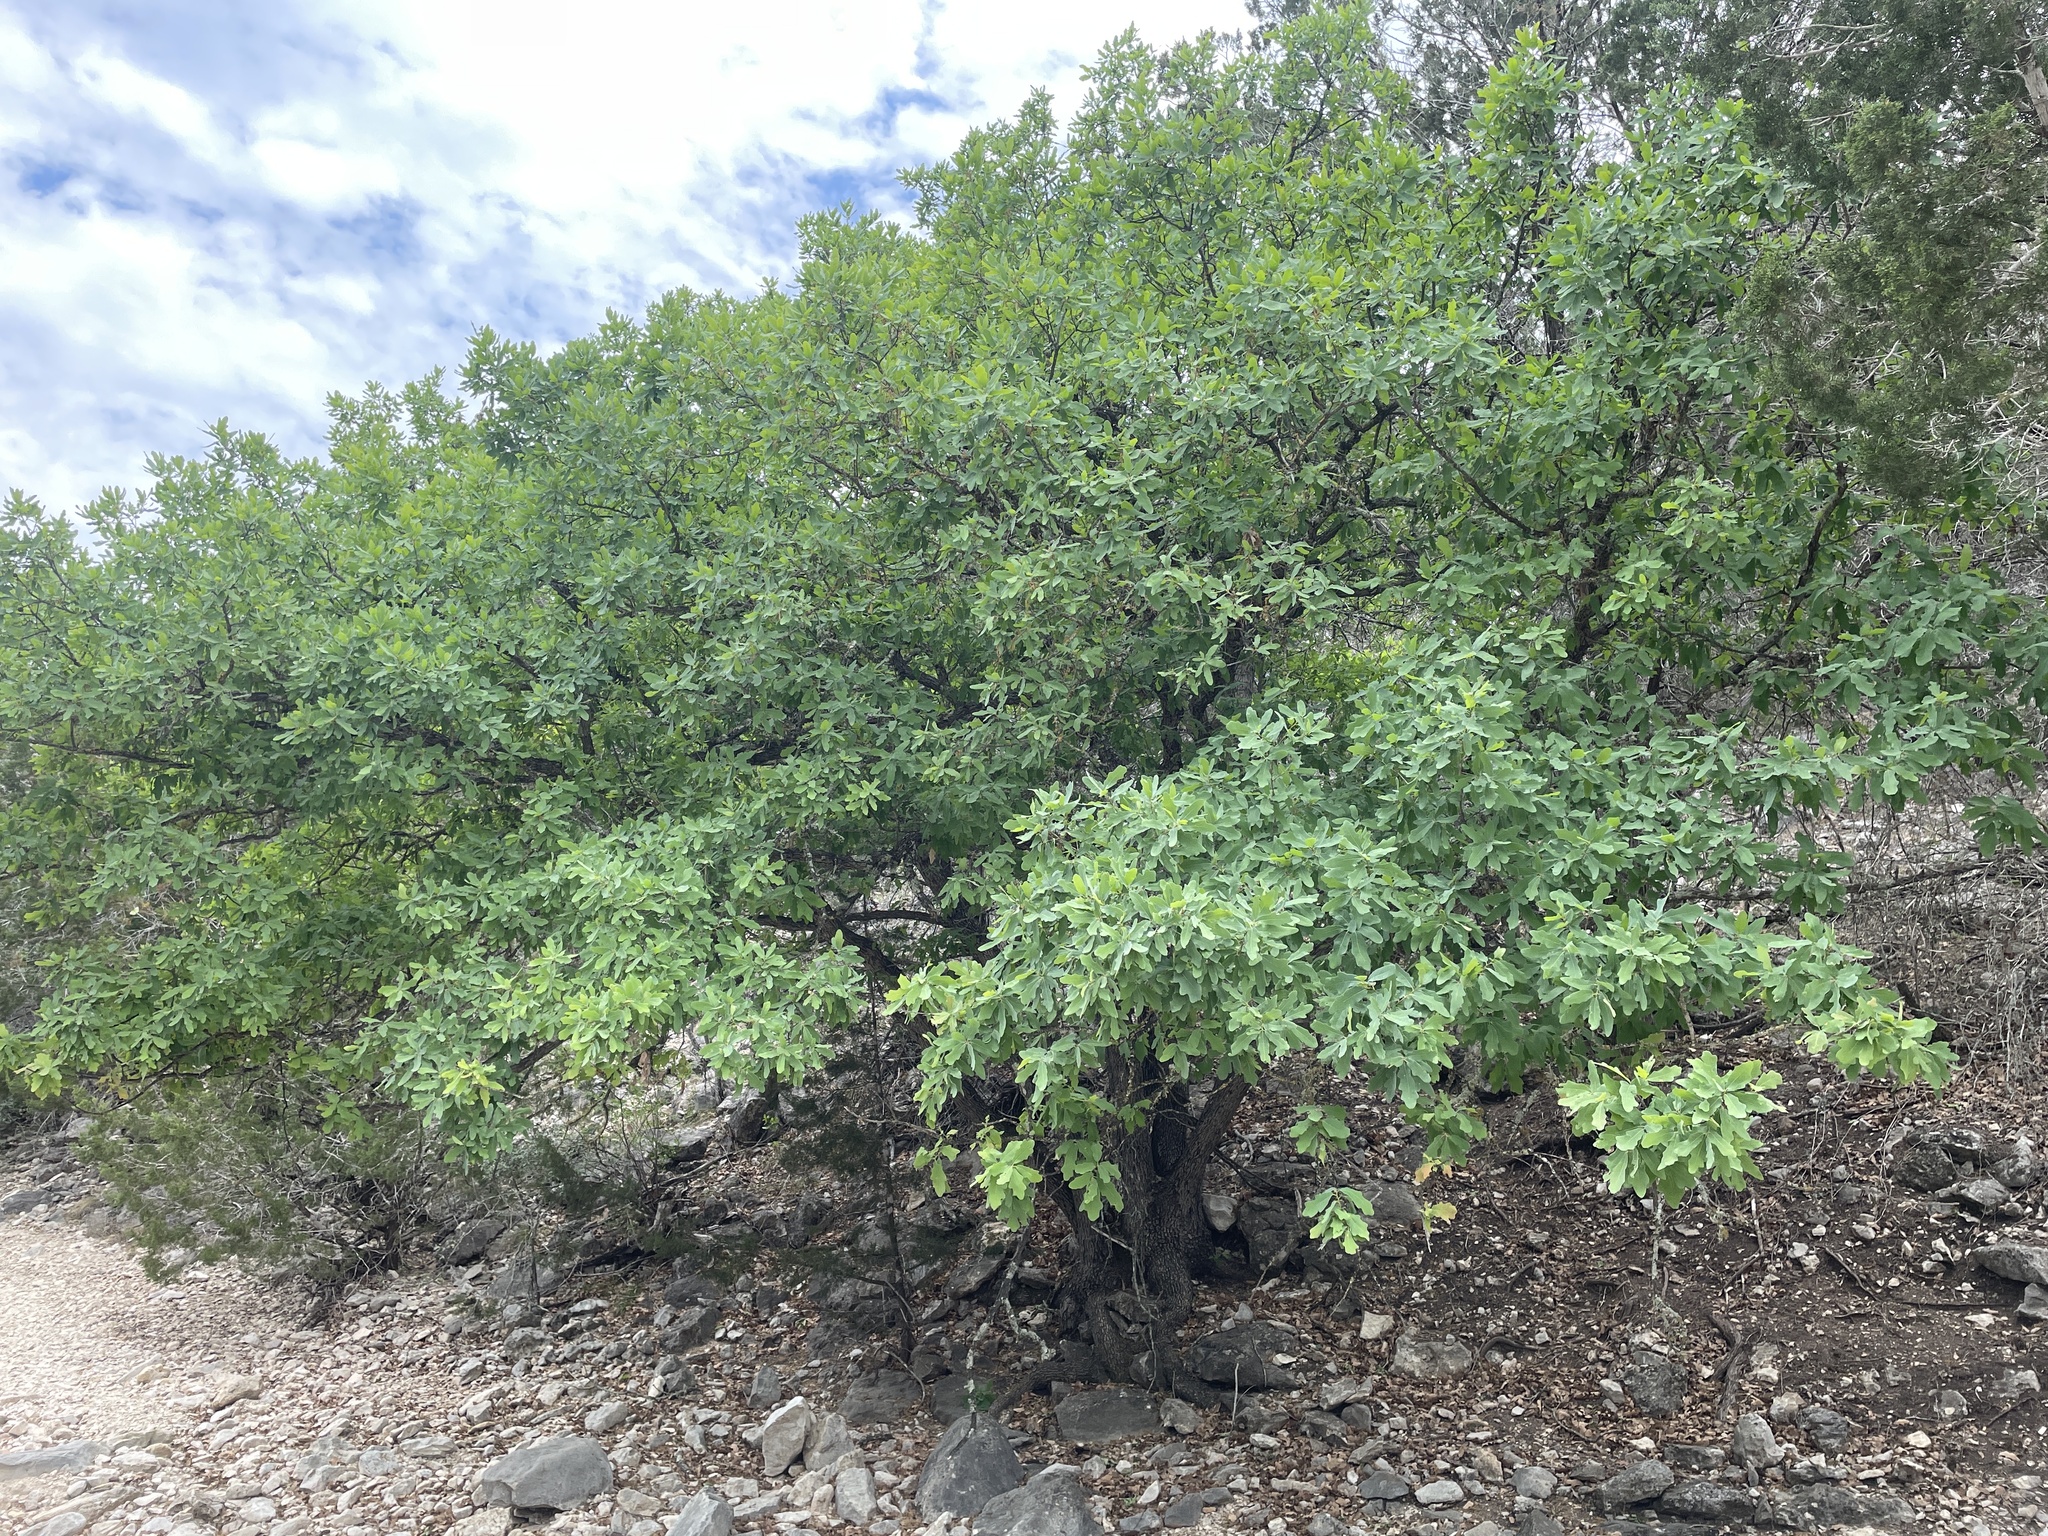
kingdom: Plantae
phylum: Tracheophyta
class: Magnoliopsida
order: Fagales
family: Fagaceae
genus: Quercus
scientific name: Quercus laceyi
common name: Lacey oak
